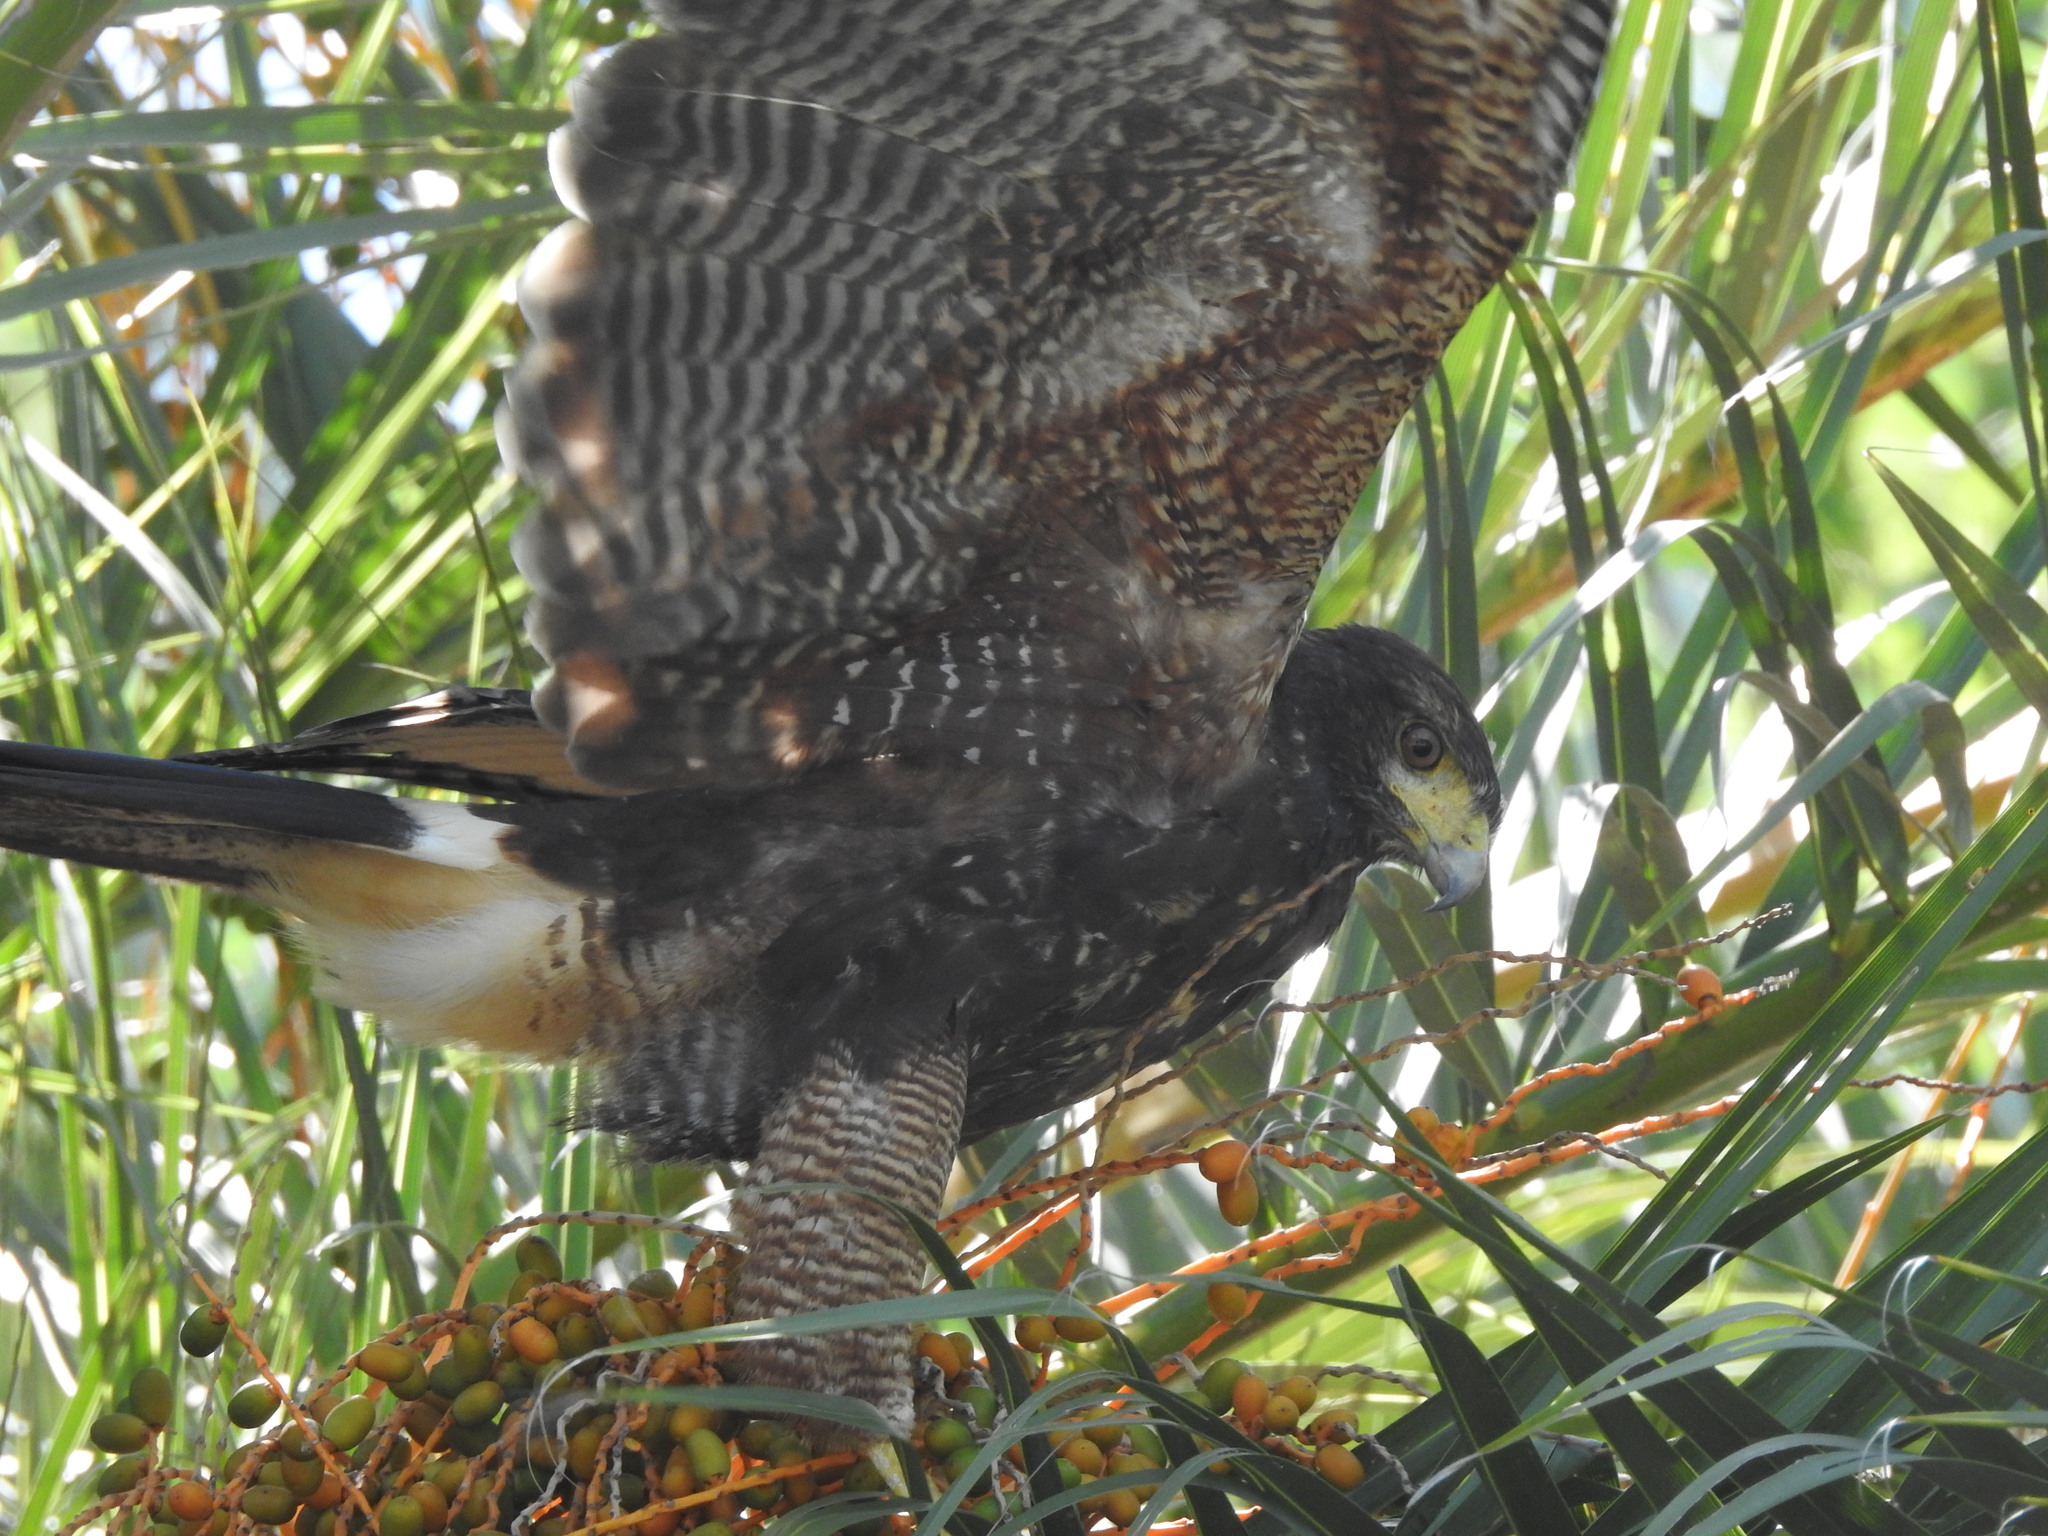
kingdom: Animalia
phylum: Chordata
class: Aves
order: Accipitriformes
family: Accipitridae
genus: Parabuteo
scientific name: Parabuteo unicinctus
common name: Harris's hawk
